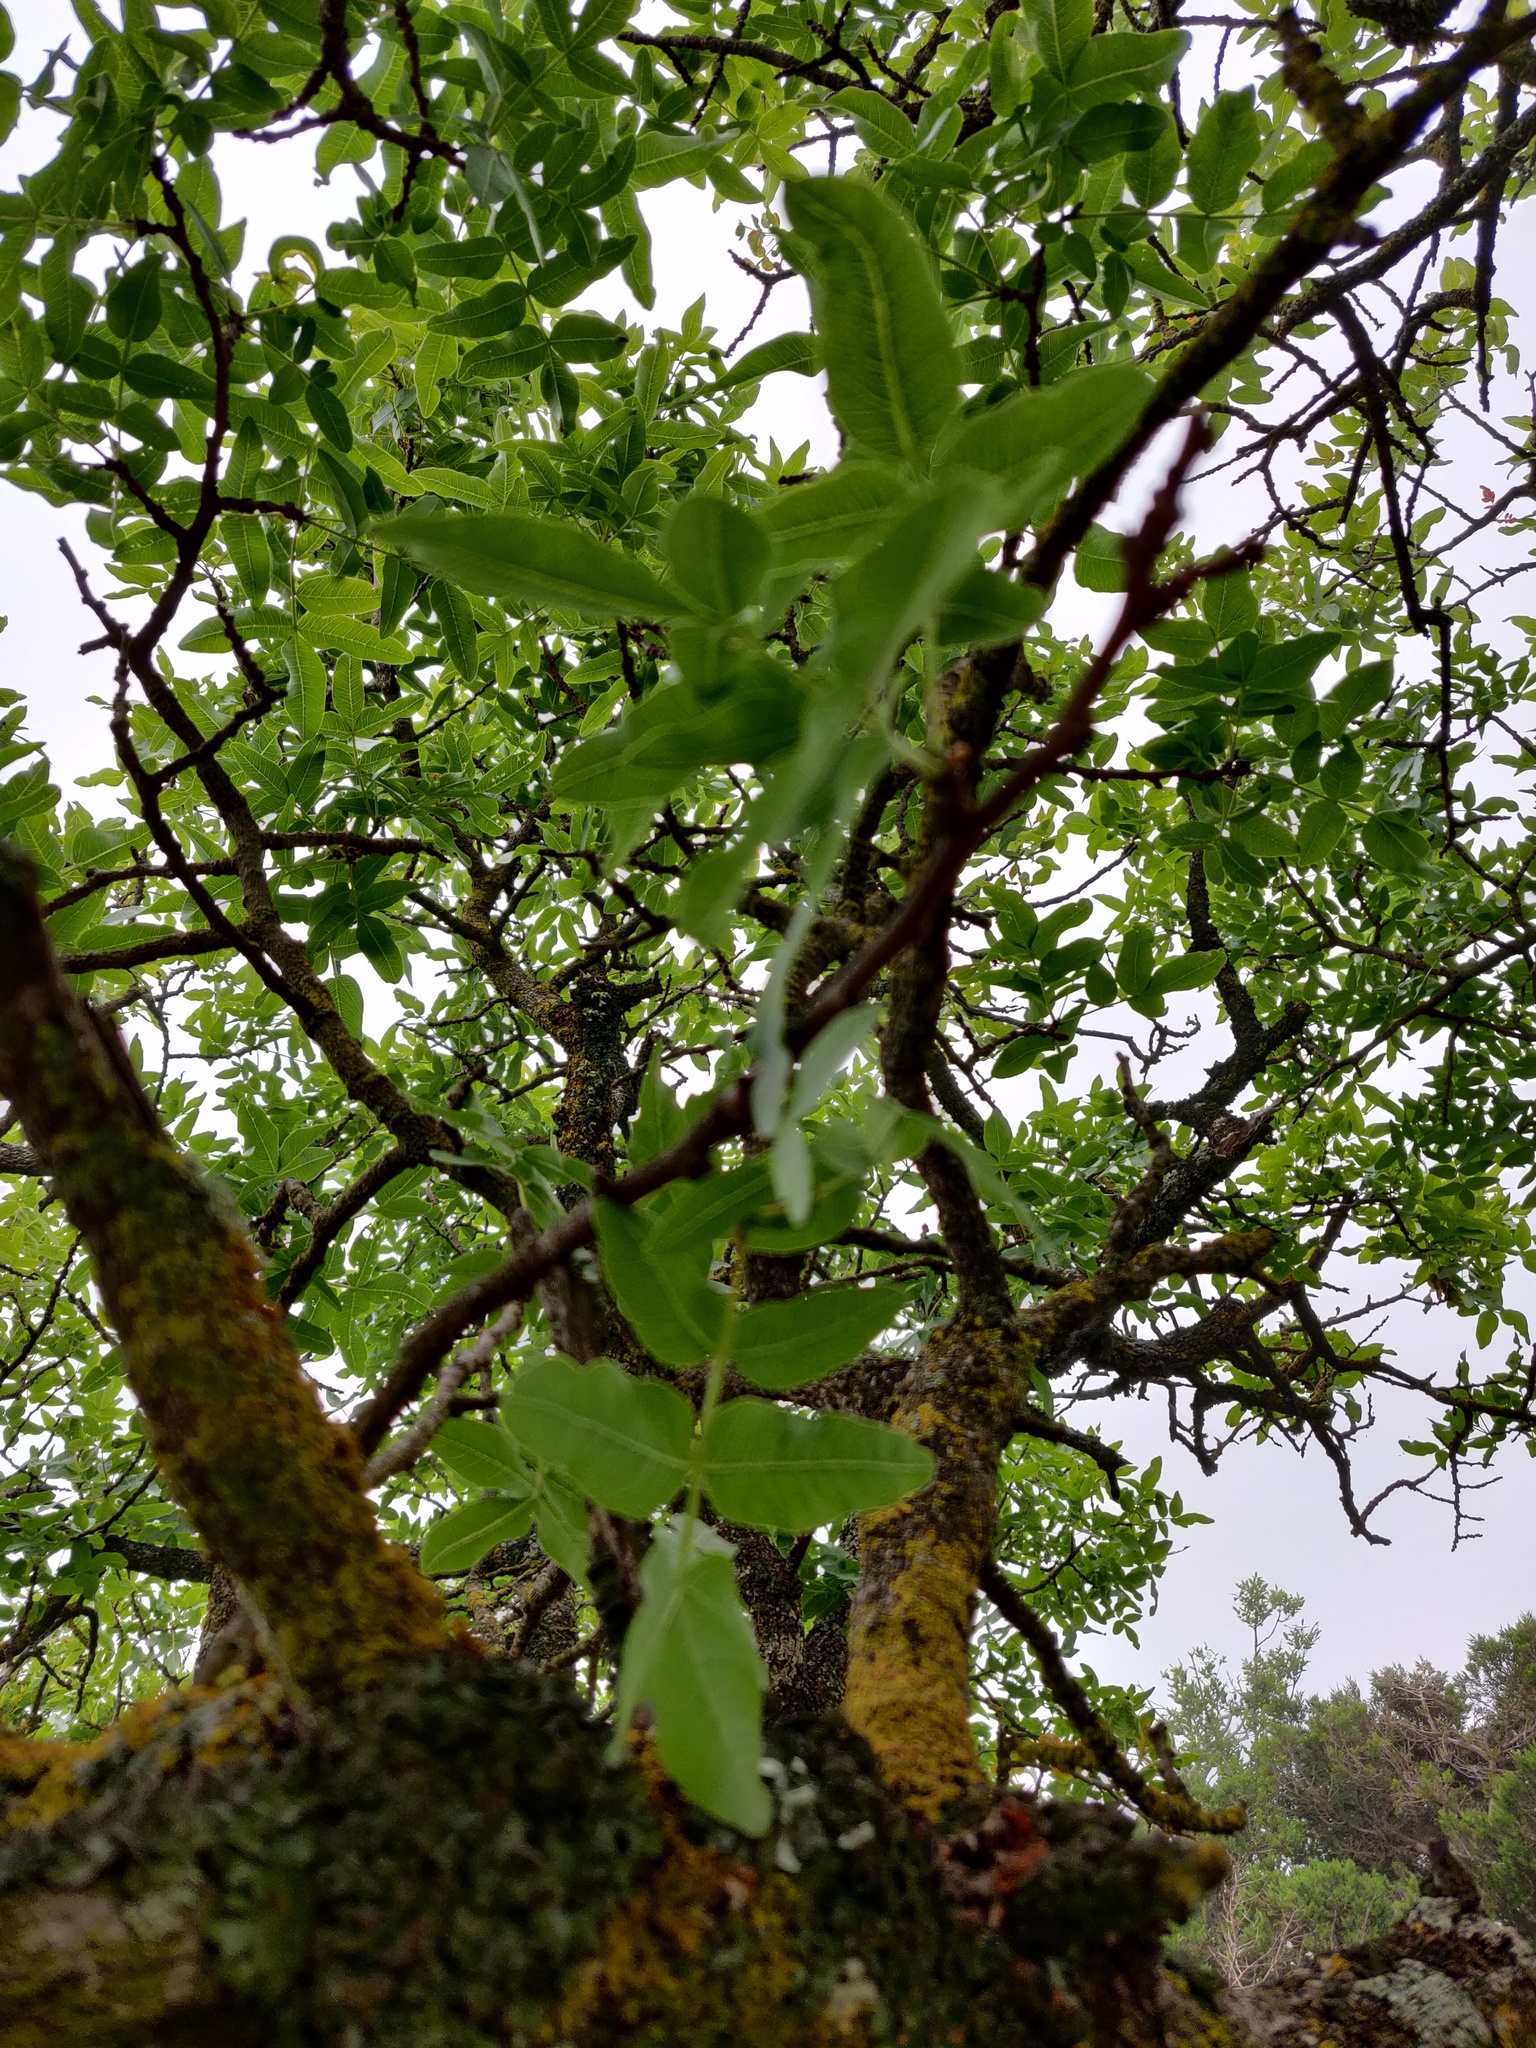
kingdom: Plantae
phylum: Tracheophyta
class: Magnoliopsida
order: Sapindales
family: Anacardiaceae
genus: Pistacia
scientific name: Pistacia atlantica
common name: Mt. atlas mastic tree
